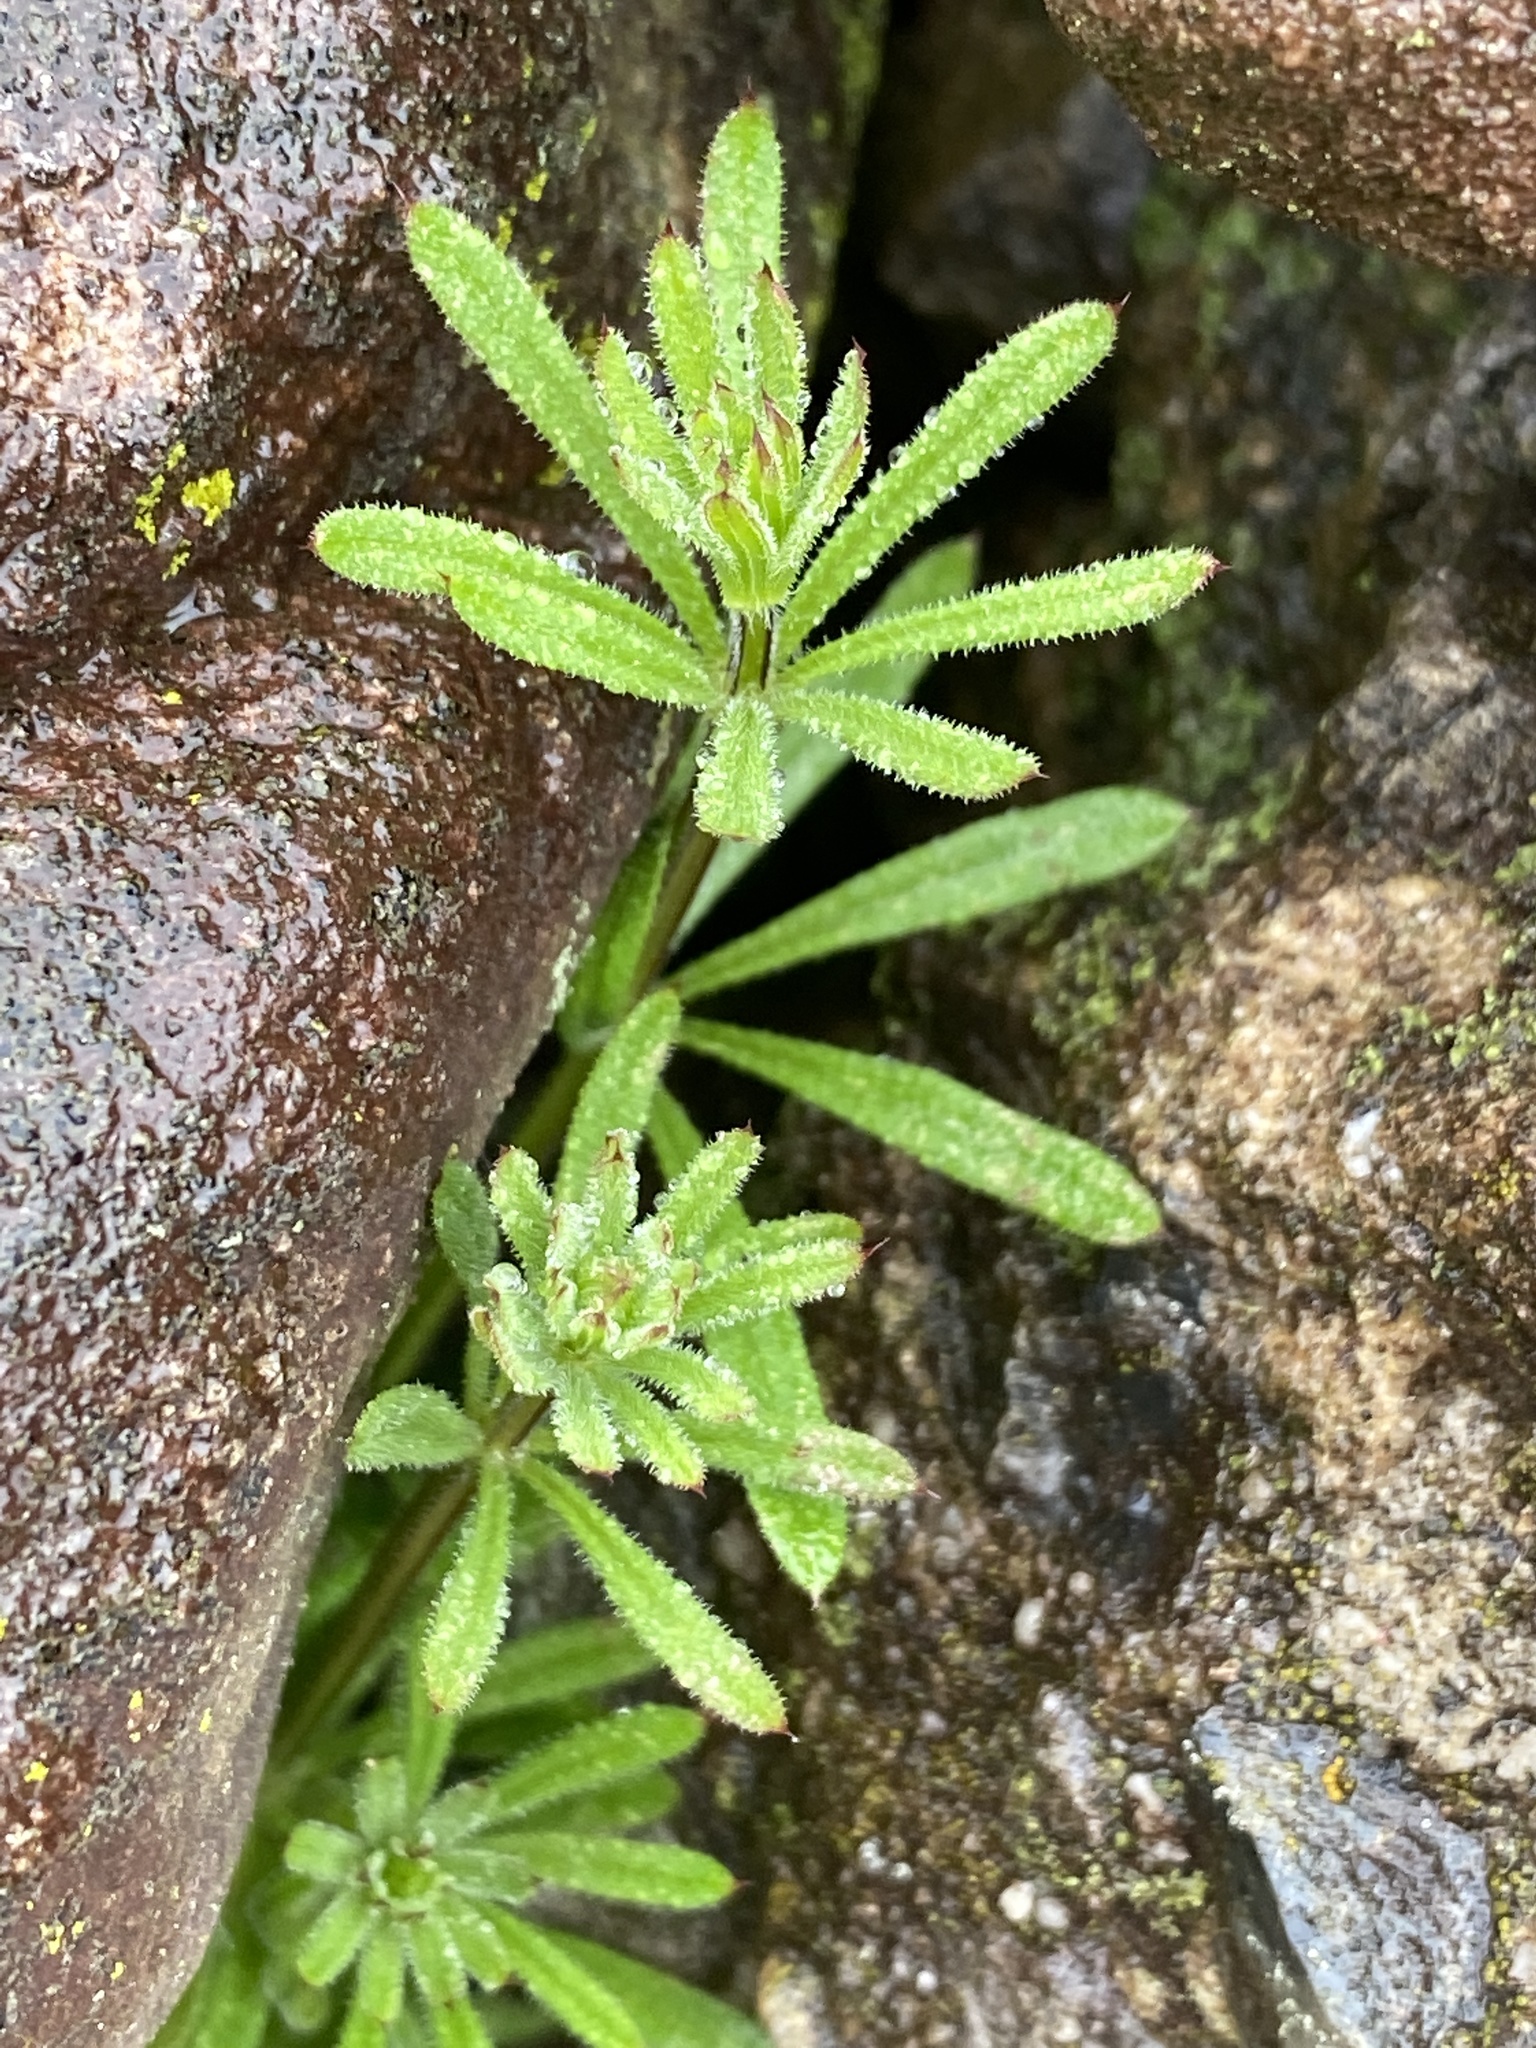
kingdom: Plantae
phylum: Tracheophyta
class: Magnoliopsida
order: Gentianales
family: Rubiaceae
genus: Galium
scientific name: Galium aparine
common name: Cleavers
